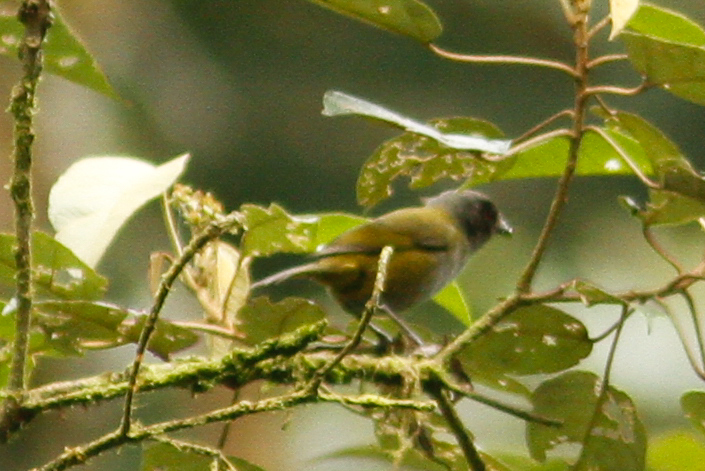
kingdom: Animalia
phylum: Chordata
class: Aves
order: Passeriformes
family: Passerellidae
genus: Chlorospingus
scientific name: Chlorospingus semifuscus
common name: Dusky bush-tanager
